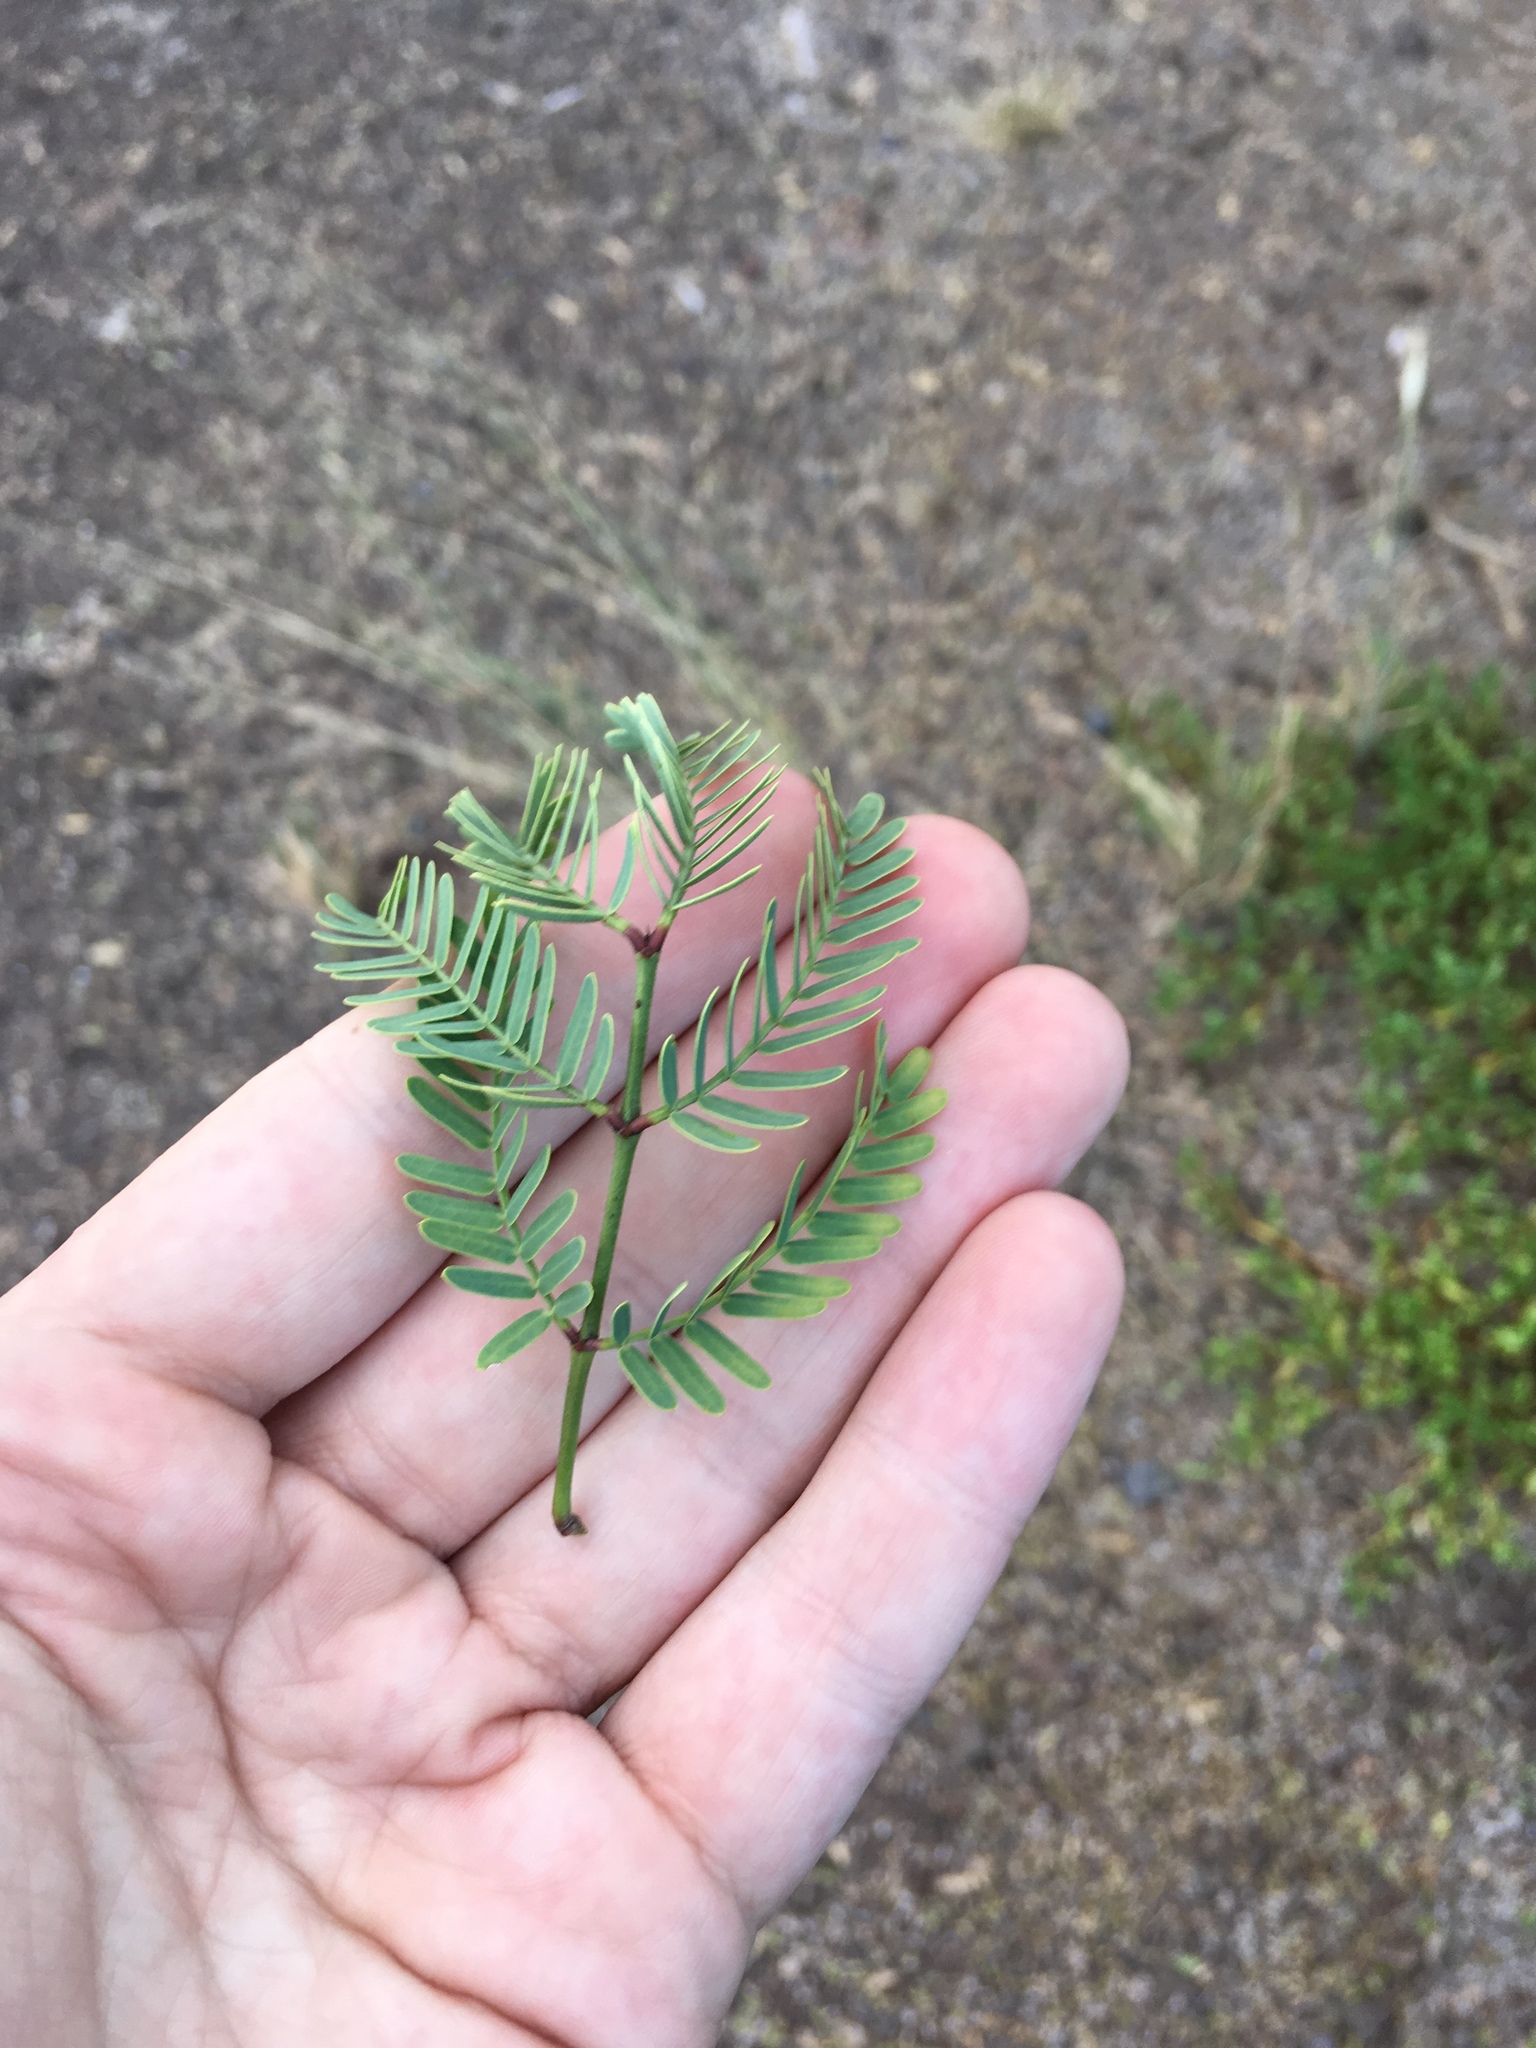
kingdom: Plantae
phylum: Tracheophyta
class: Magnoliopsida
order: Fabales
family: Fabaceae
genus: Prosopis
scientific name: Prosopis pallida
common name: Mesquite
